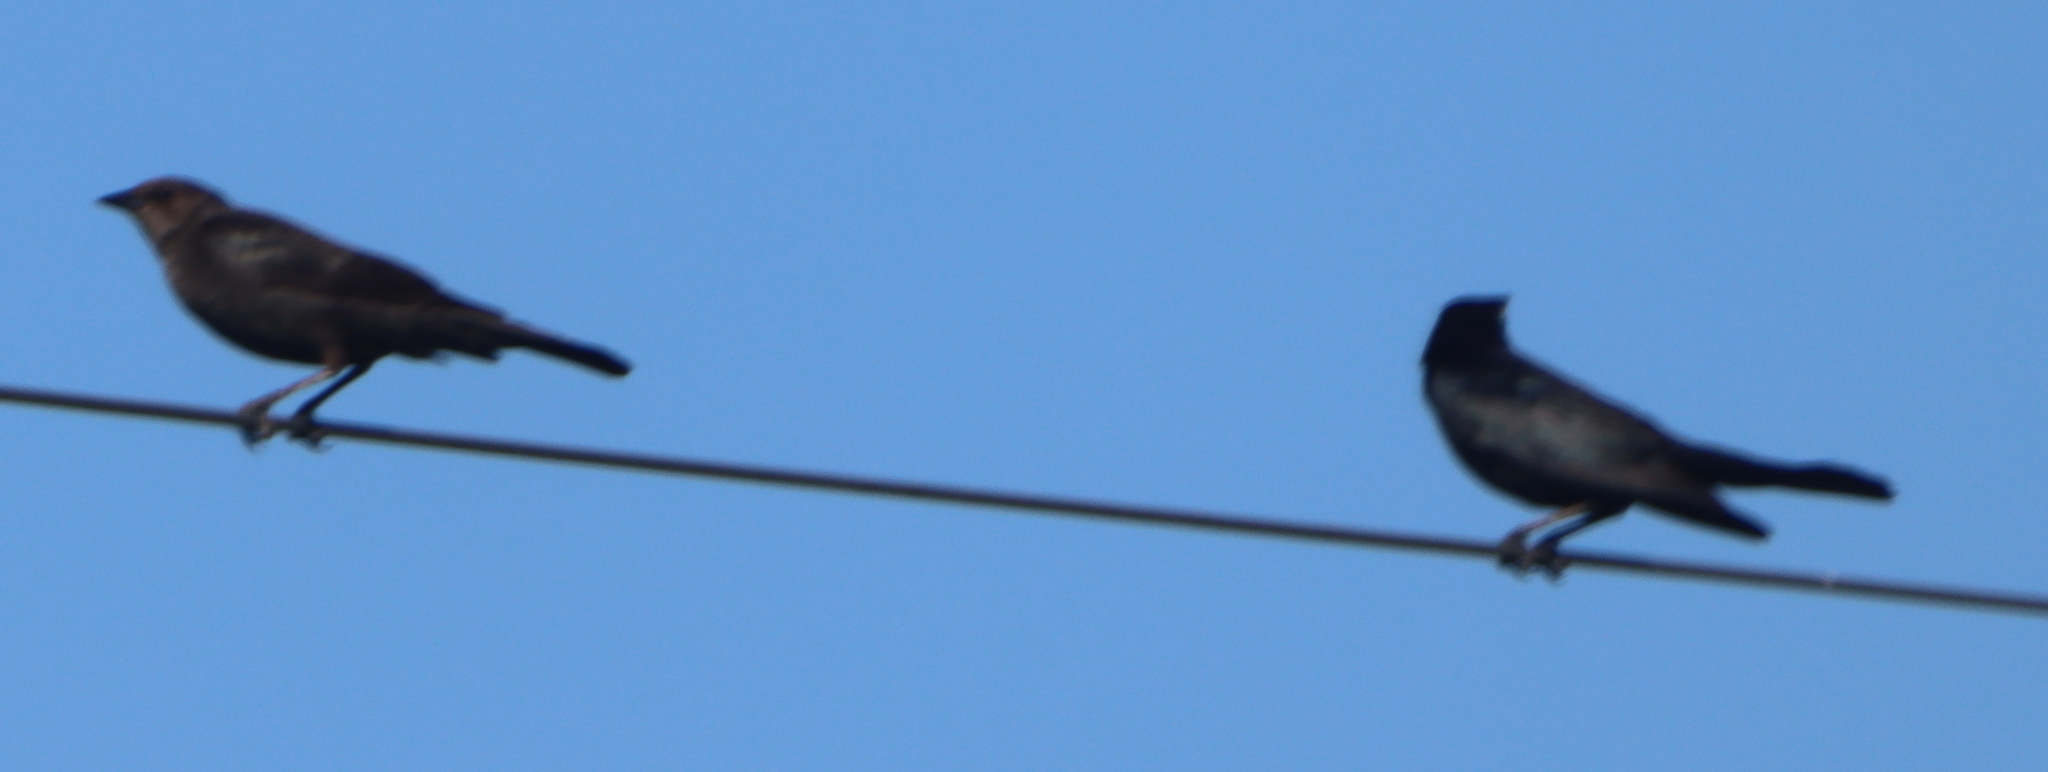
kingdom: Animalia
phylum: Chordata
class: Aves
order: Passeriformes
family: Icteridae
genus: Molothrus
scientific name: Molothrus ater
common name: Brown-headed cowbird
